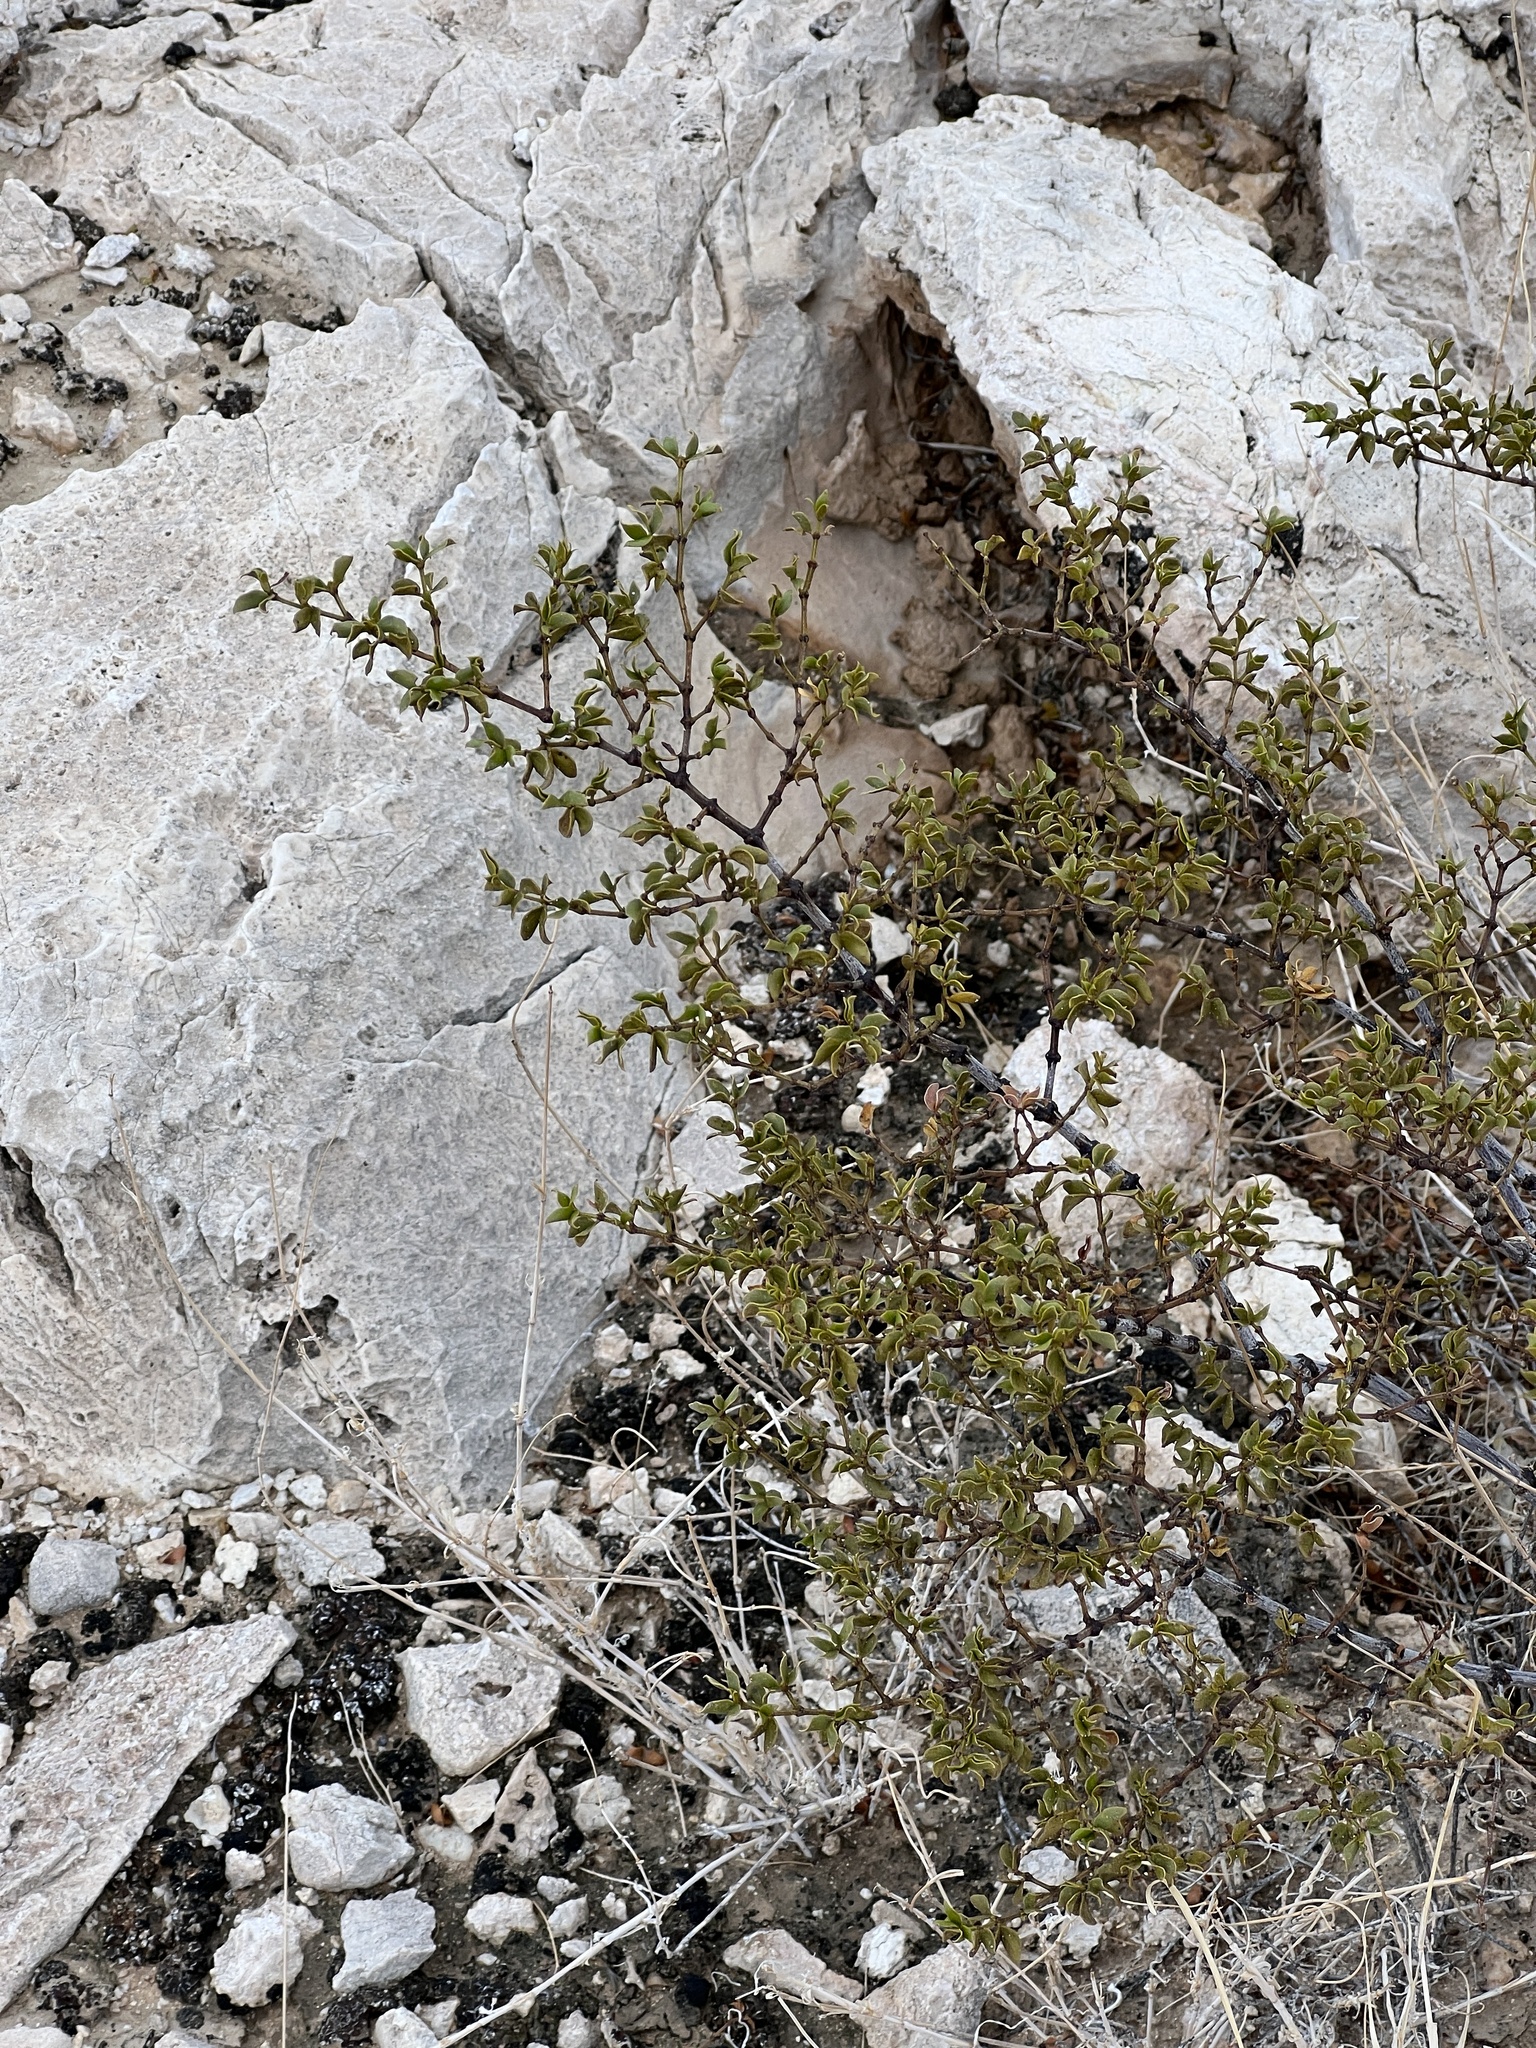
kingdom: Plantae
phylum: Tracheophyta
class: Magnoliopsida
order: Zygophyllales
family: Zygophyllaceae
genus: Larrea
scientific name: Larrea tridentata
